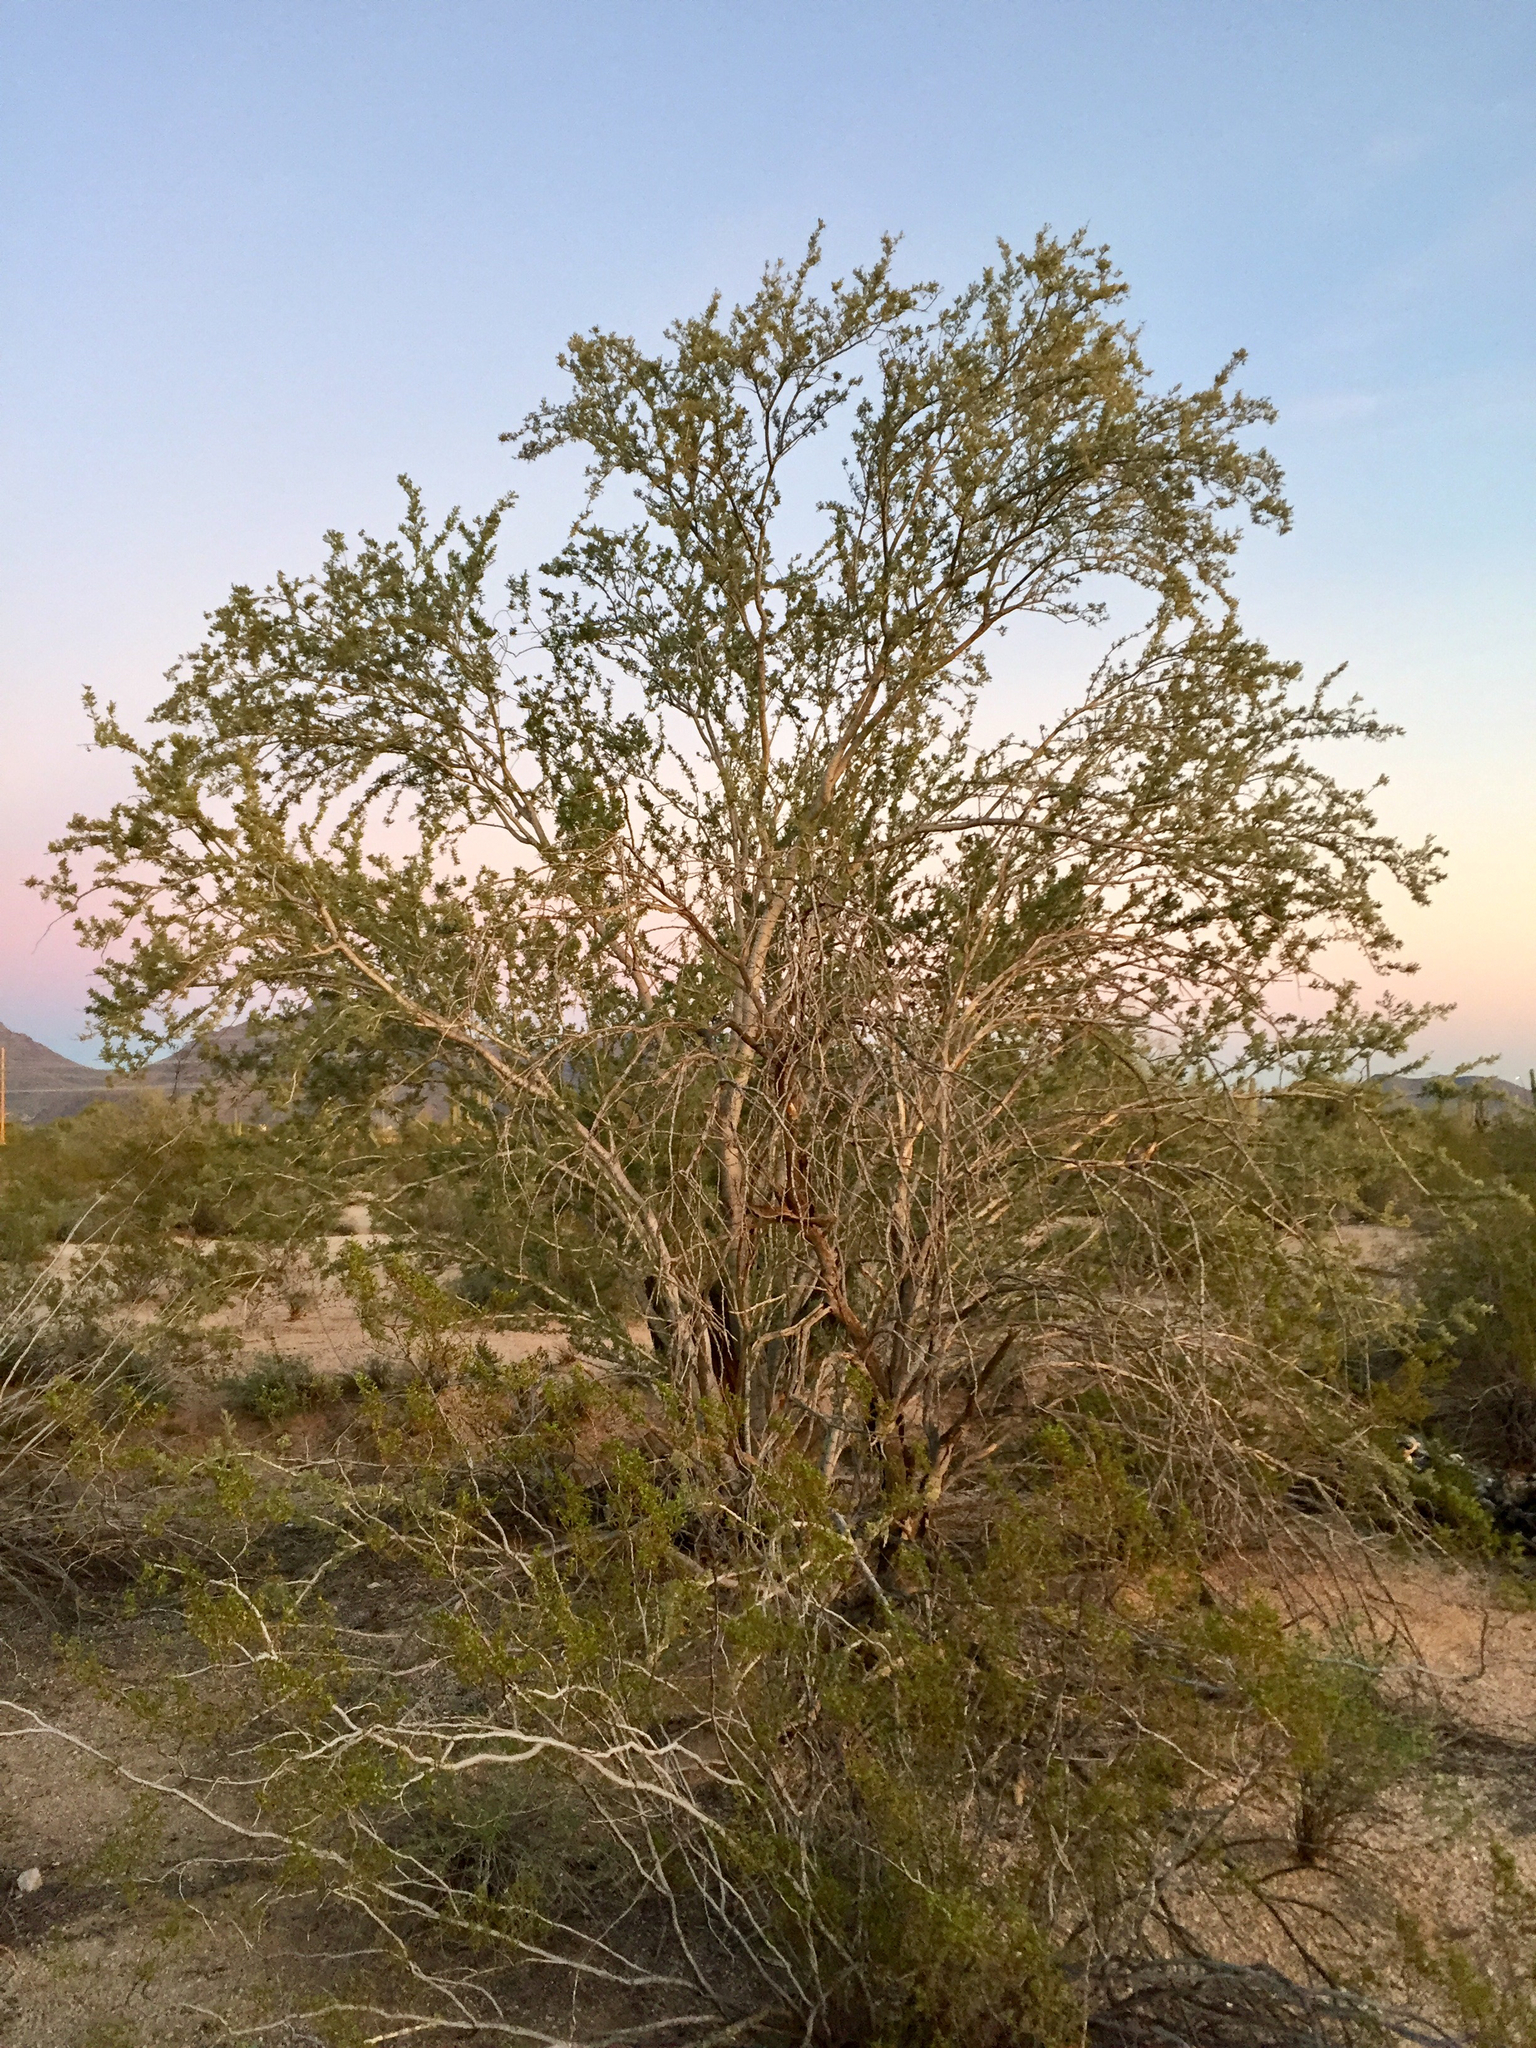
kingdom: Plantae
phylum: Tracheophyta
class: Magnoliopsida
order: Fabales
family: Fabaceae
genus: Olneya
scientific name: Olneya tesota
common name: Desert ironwood
